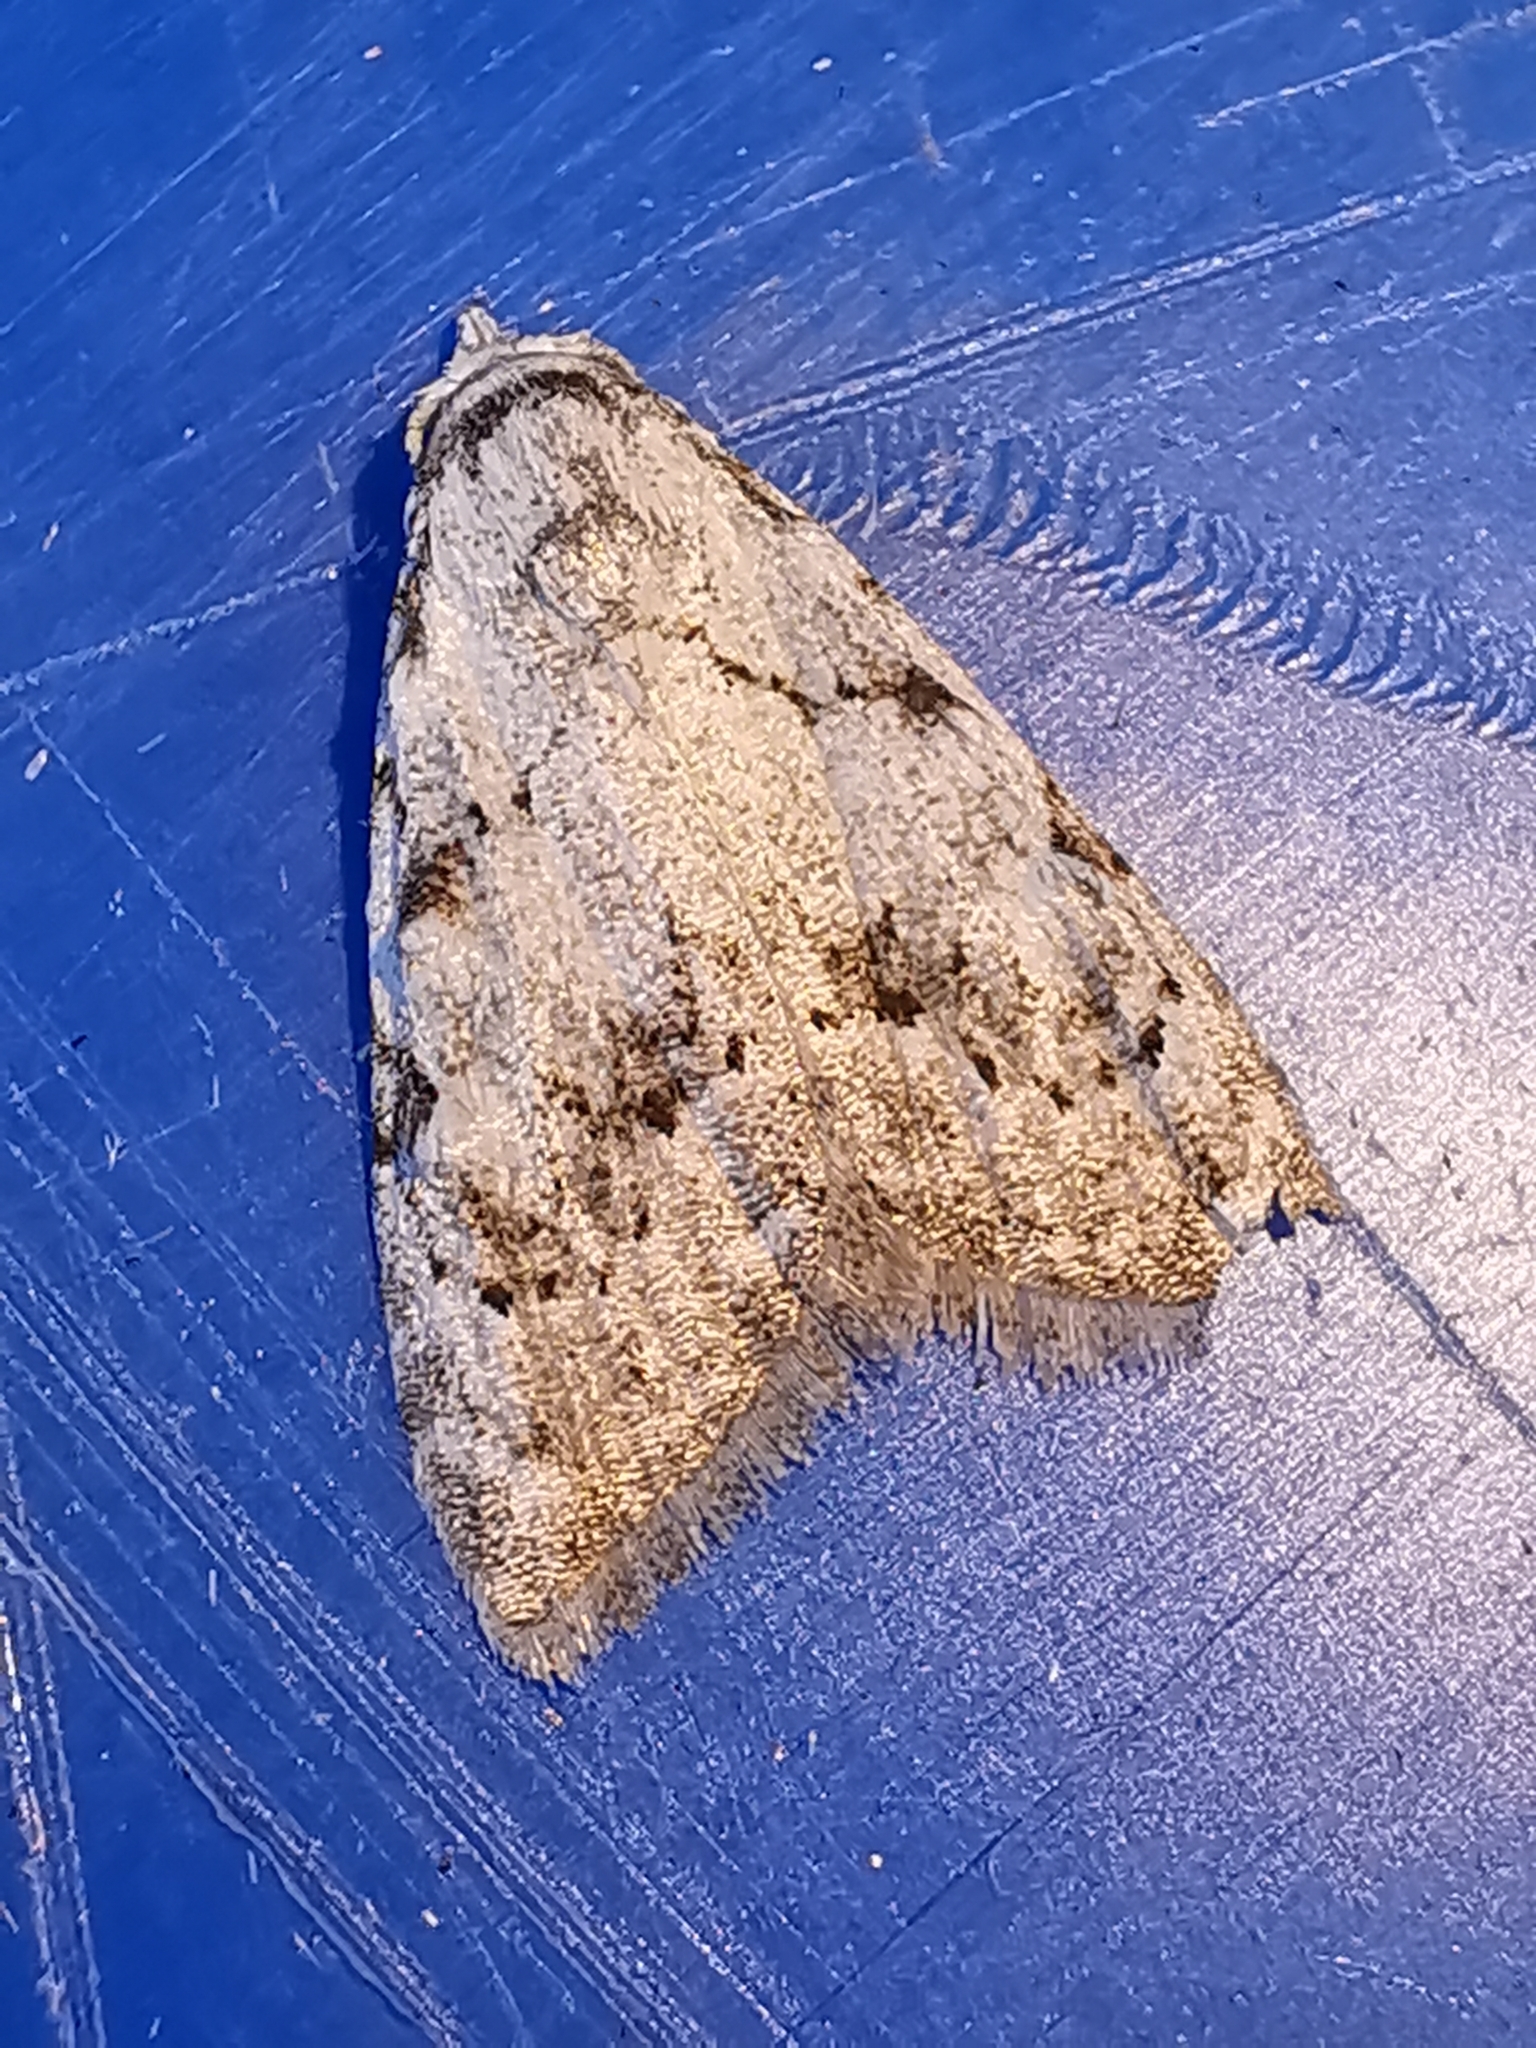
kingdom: Animalia
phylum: Arthropoda
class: Insecta
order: Lepidoptera
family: Nolidae
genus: Nola
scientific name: Nola confusalis
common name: Least black arches
